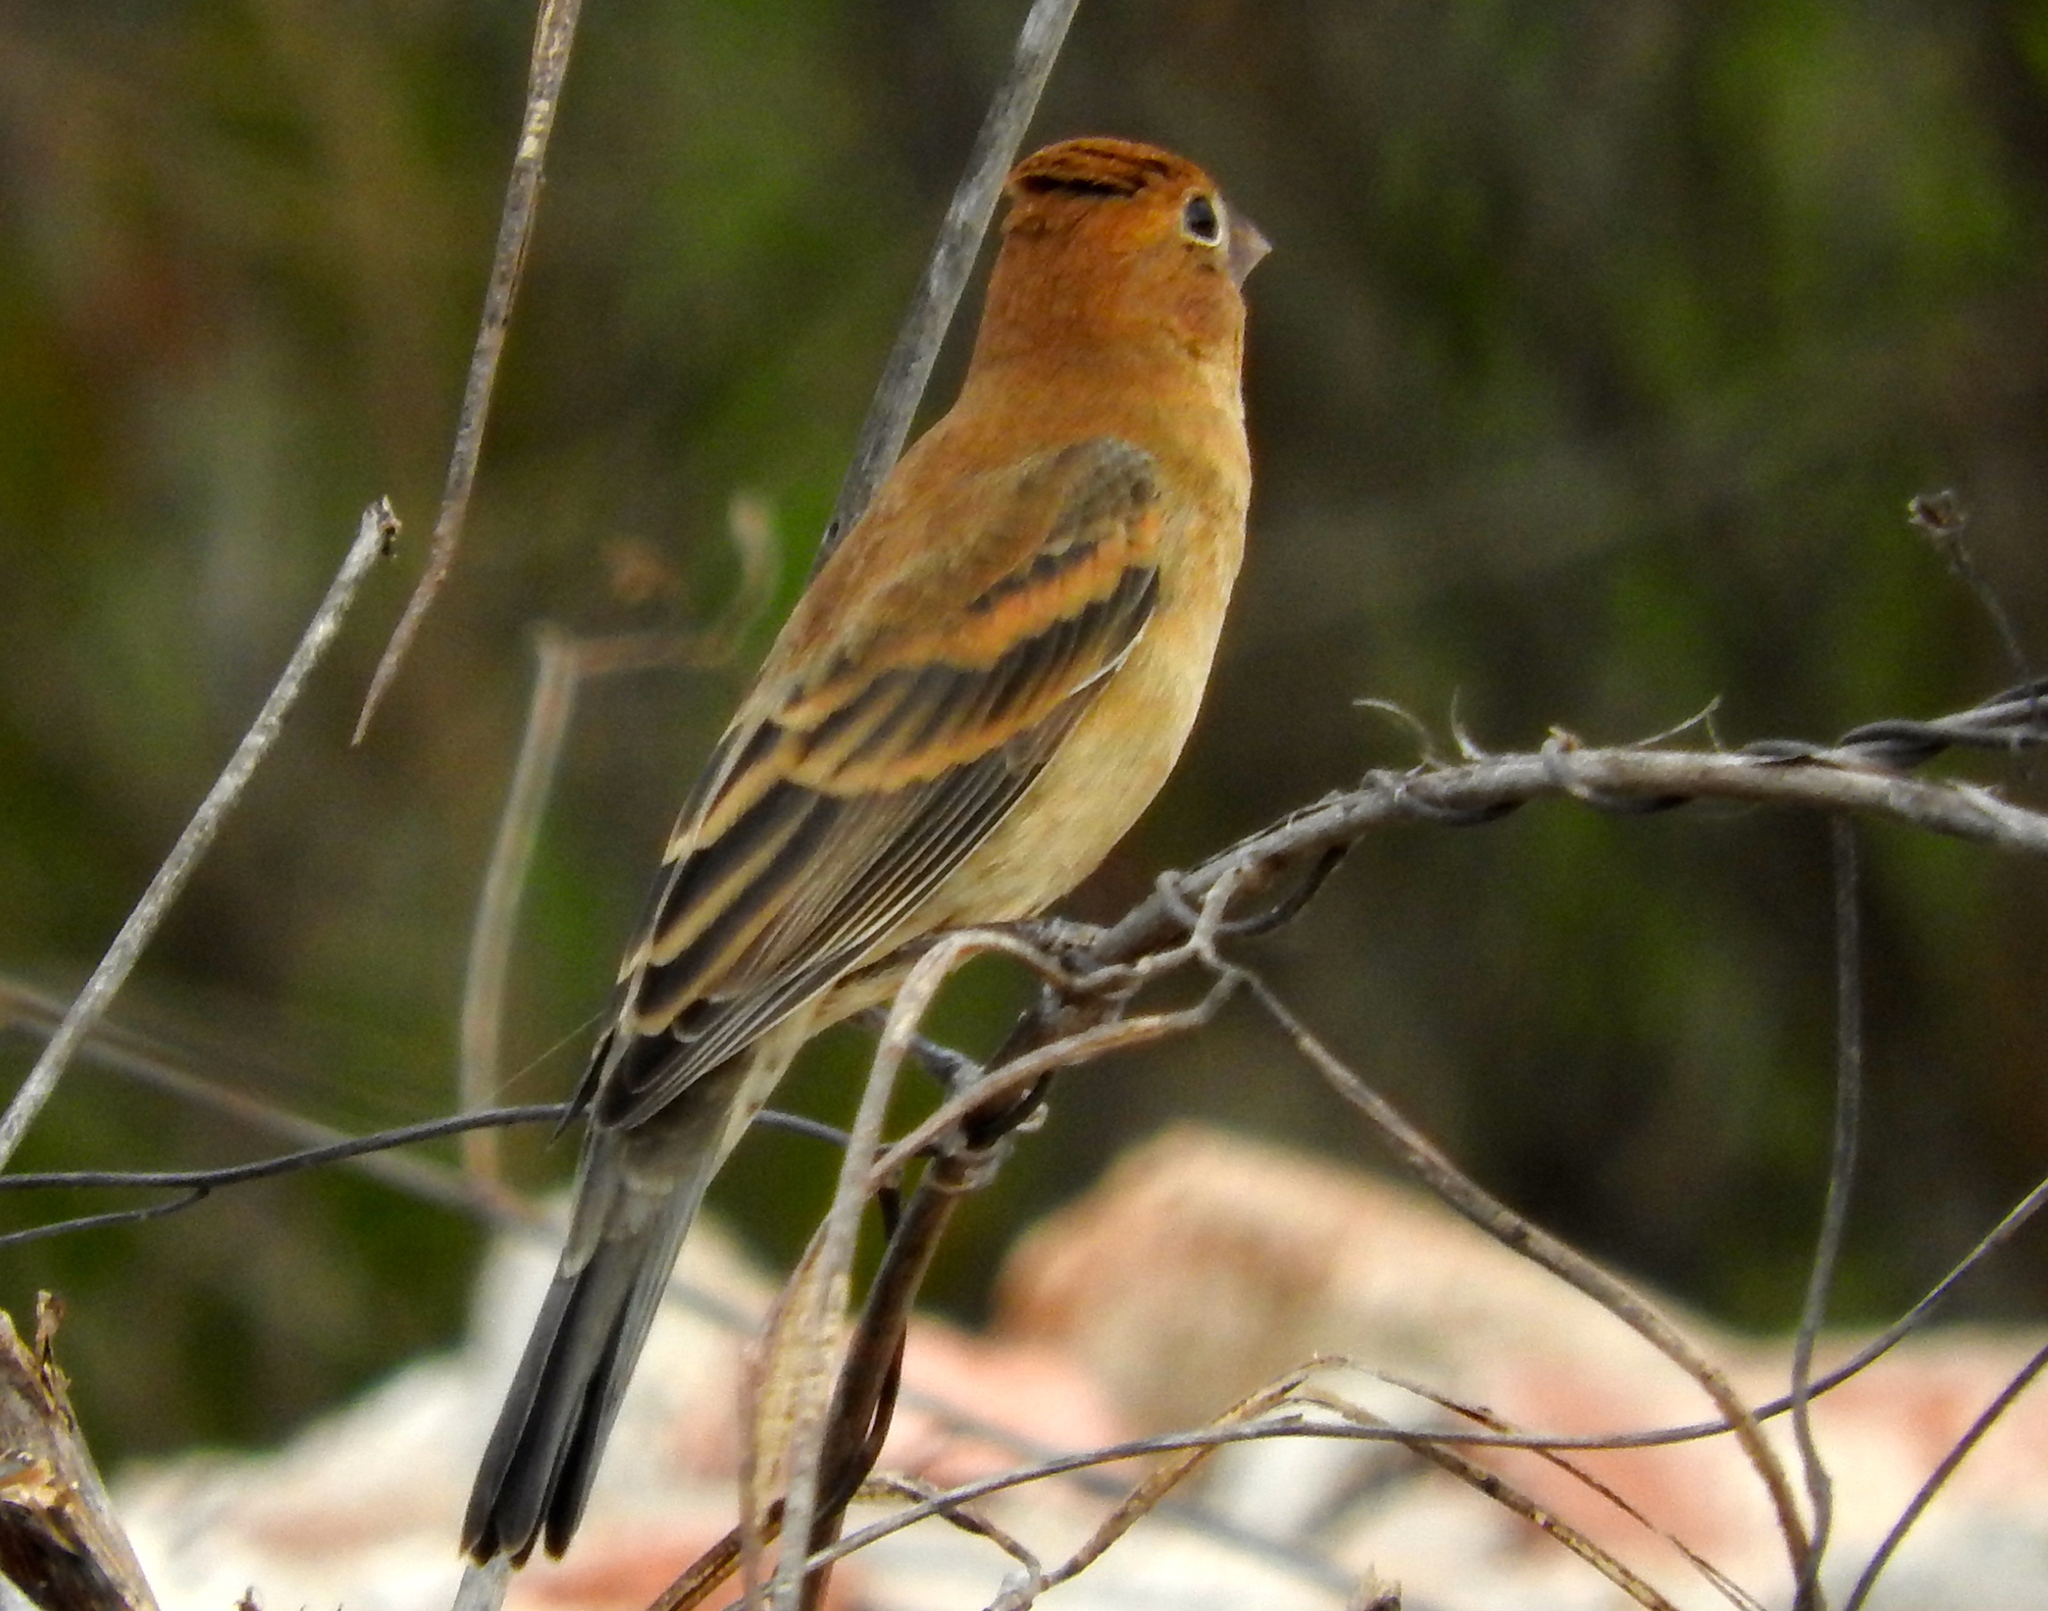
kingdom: Animalia
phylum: Chordata
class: Aves
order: Passeriformes
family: Cardinalidae
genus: Passerina
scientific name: Passerina caerulea
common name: Blue grosbeak
